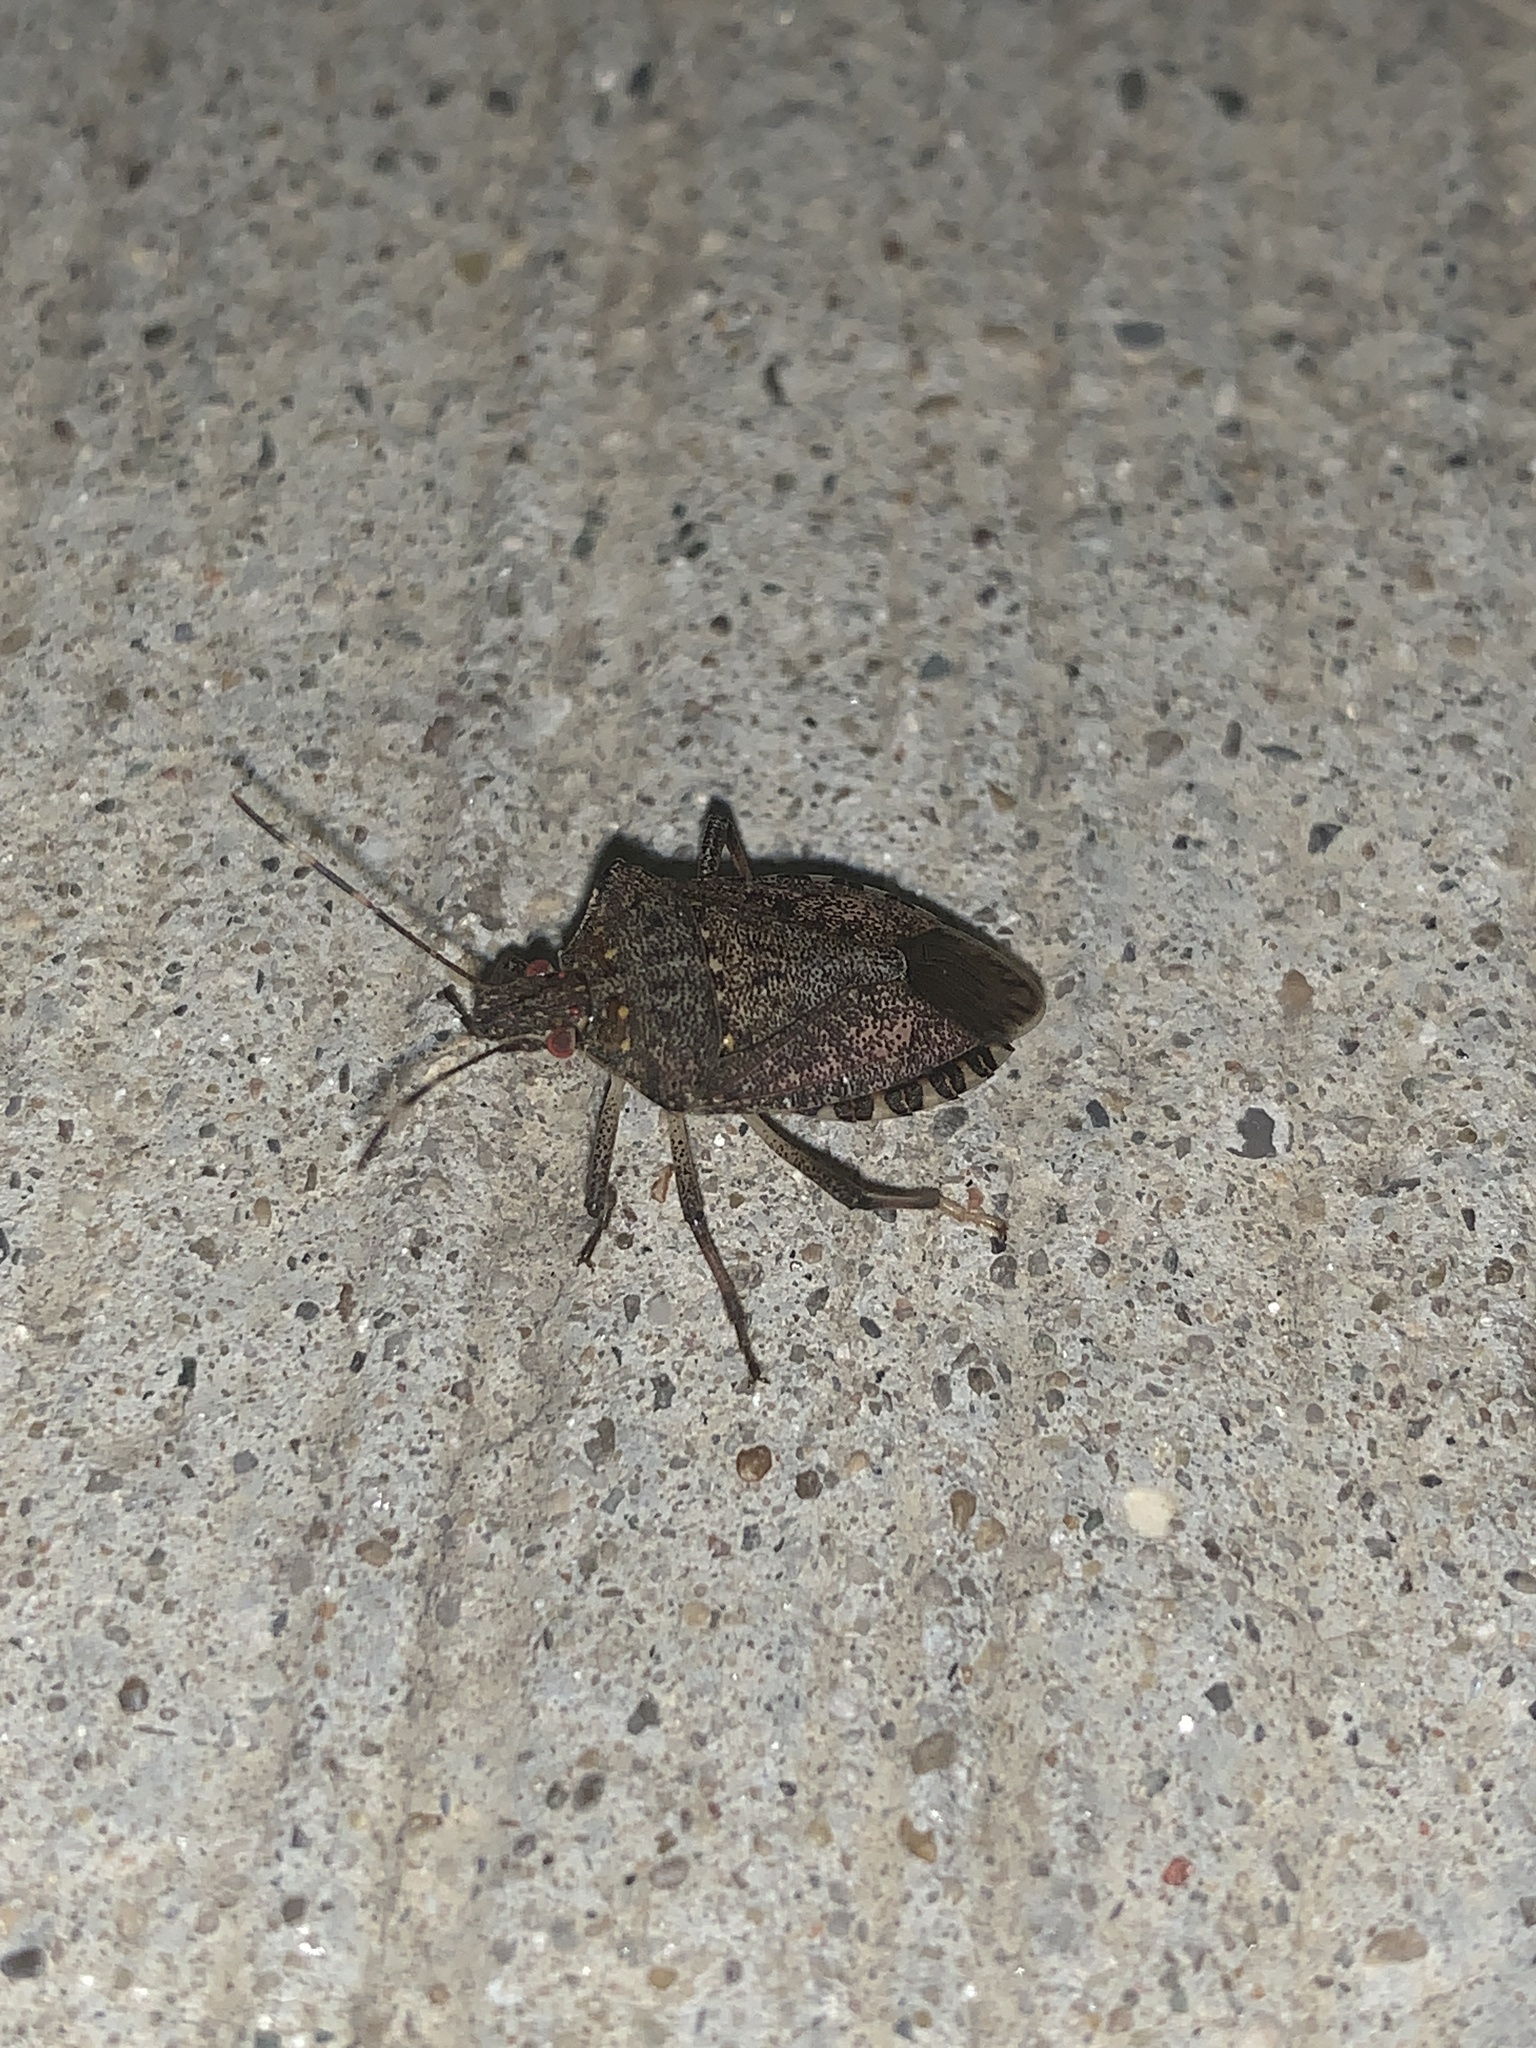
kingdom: Animalia
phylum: Arthropoda
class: Insecta
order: Hemiptera
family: Pentatomidae
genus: Halyomorpha
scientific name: Halyomorpha halys
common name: Brown marmorated stink bug
